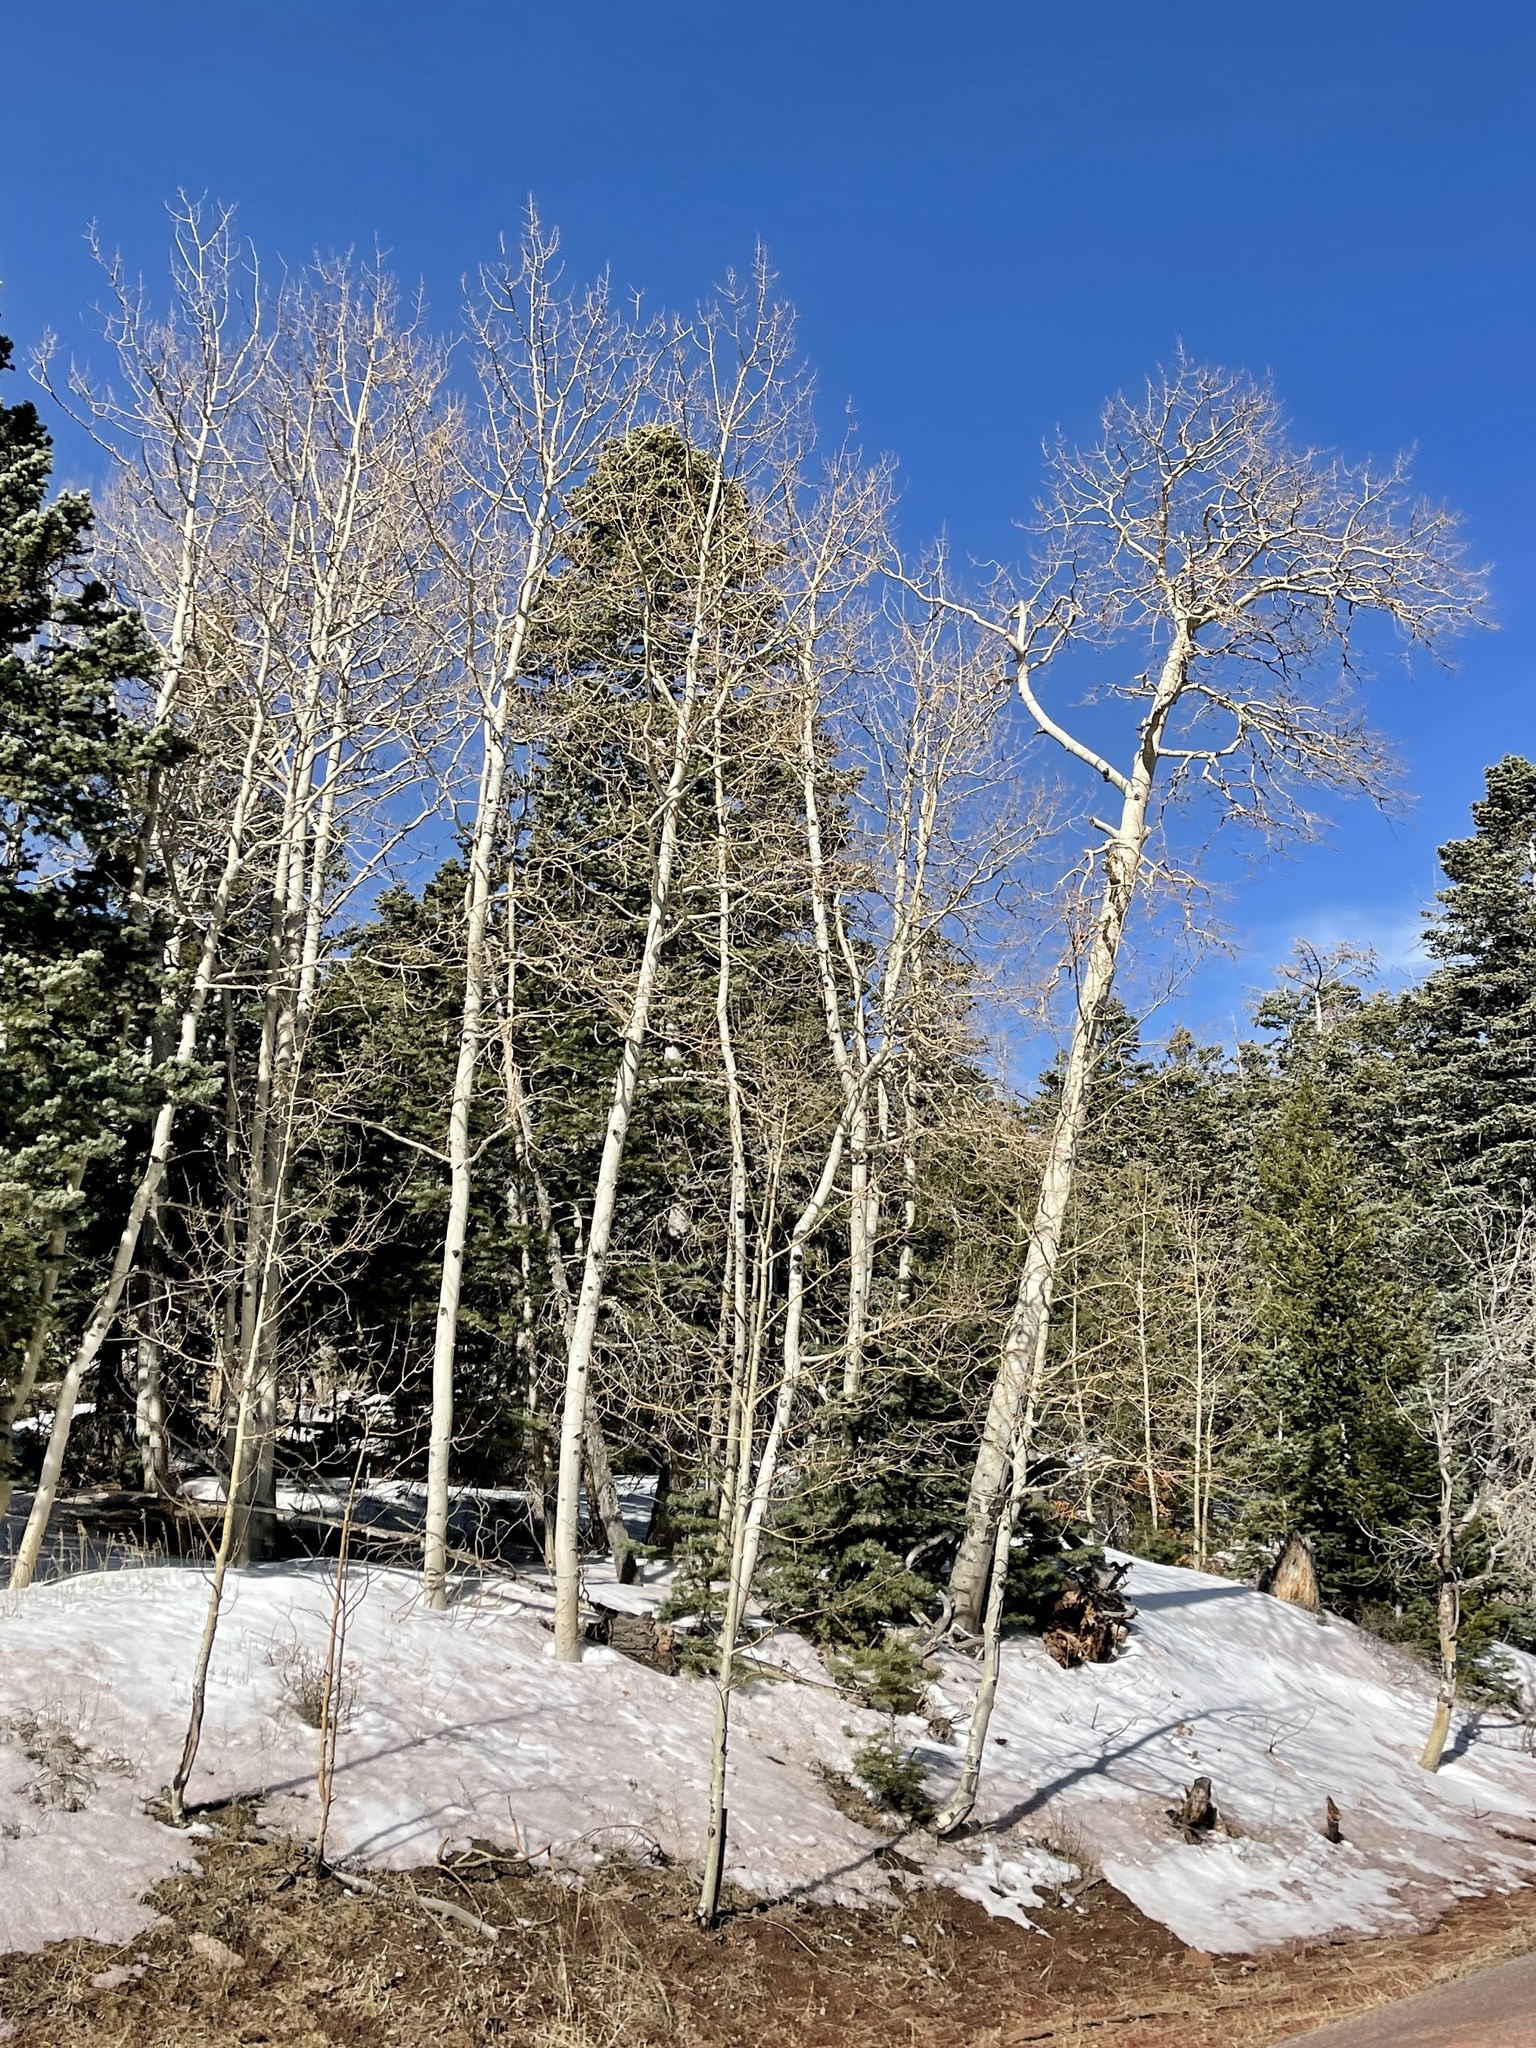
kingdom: Plantae
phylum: Tracheophyta
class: Magnoliopsida
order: Malpighiales
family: Salicaceae
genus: Populus
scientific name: Populus tremuloides
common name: Quaking aspen
